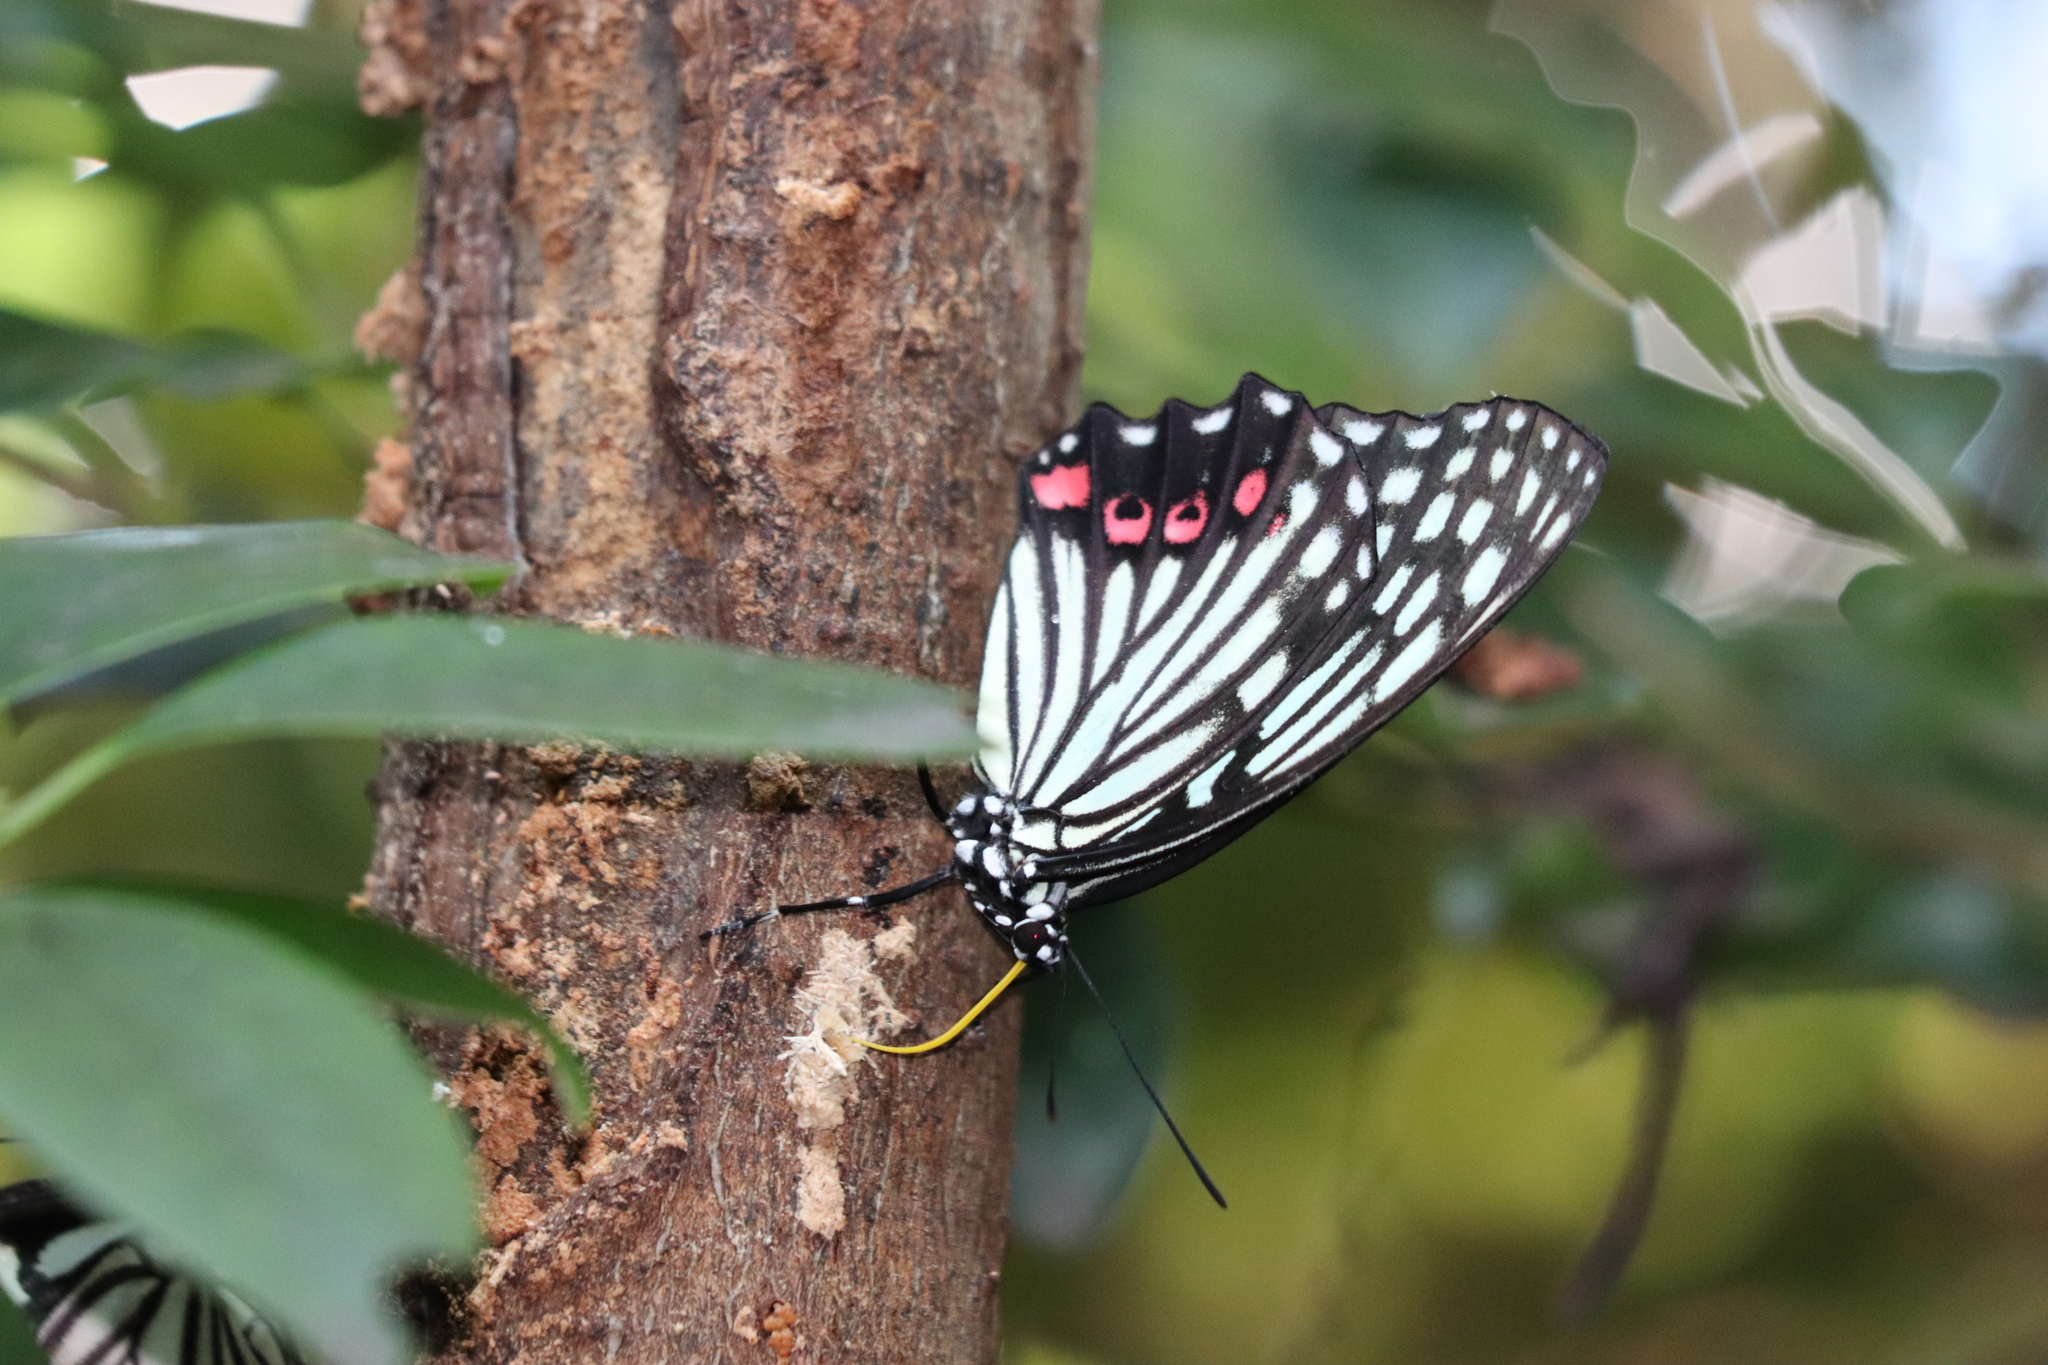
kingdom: Animalia
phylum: Arthropoda
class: Insecta
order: Lepidoptera
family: Nymphalidae
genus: Hestina
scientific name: Hestina assimilis
